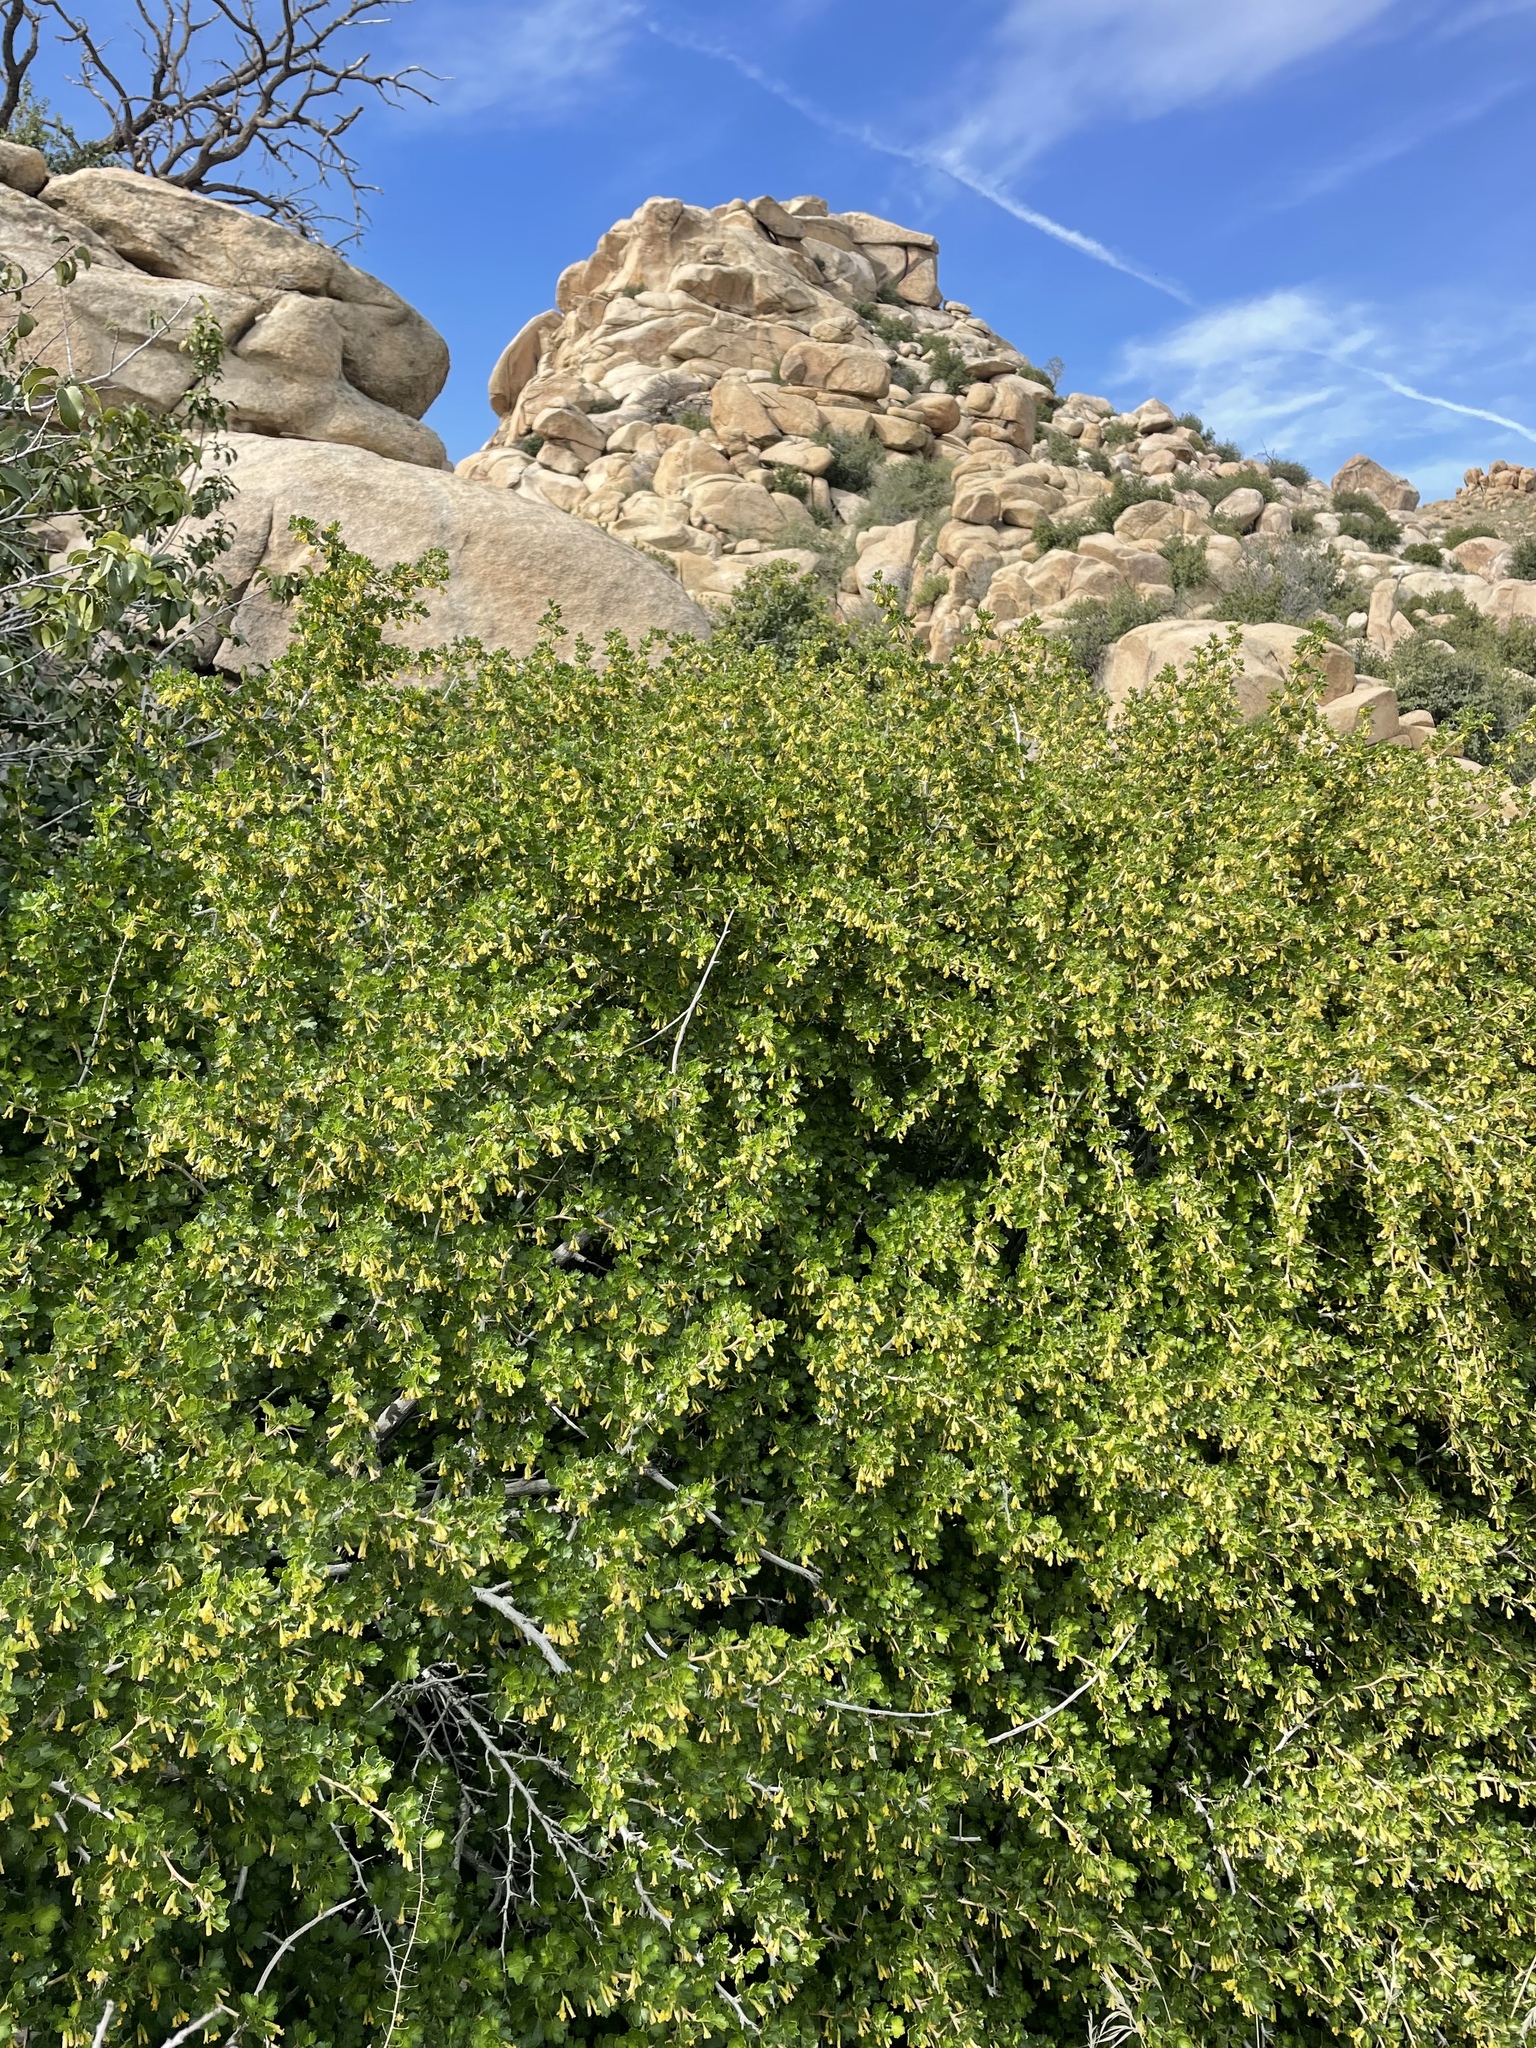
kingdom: Plantae
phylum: Tracheophyta
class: Magnoliopsida
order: Saxifragales
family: Grossulariaceae
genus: Ribes
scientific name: Ribes quercetorum
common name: Oak gooseberry
